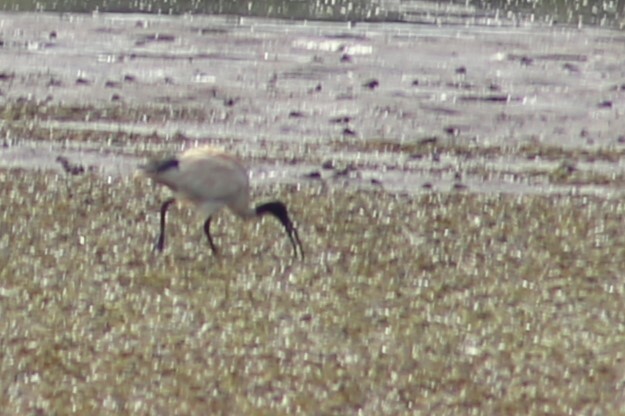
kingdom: Animalia
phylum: Chordata
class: Aves
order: Pelecaniformes
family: Threskiornithidae
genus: Threskiornis
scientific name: Threskiornis molucca
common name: Australian white ibis
